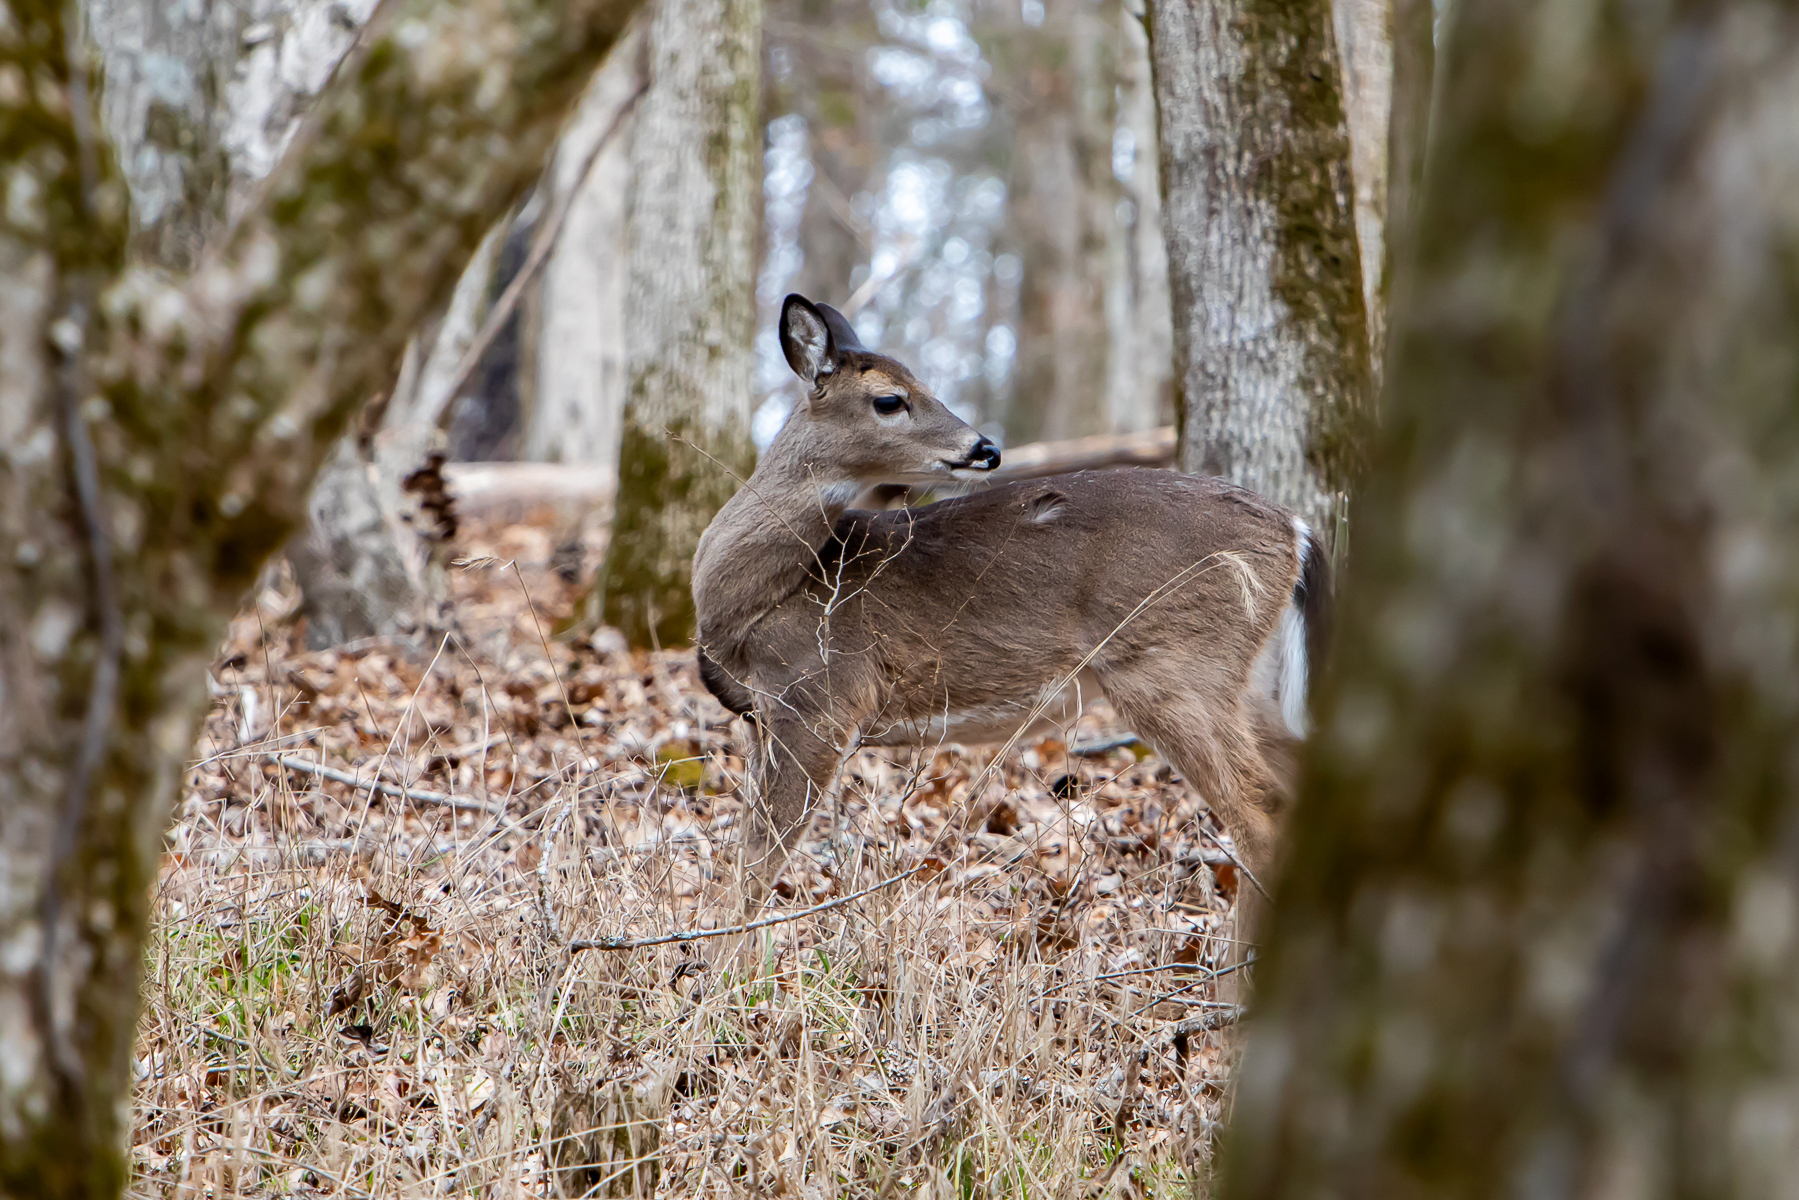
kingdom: Animalia
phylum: Chordata
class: Mammalia
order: Artiodactyla
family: Cervidae
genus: Odocoileus
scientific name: Odocoileus virginianus
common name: White-tailed deer
